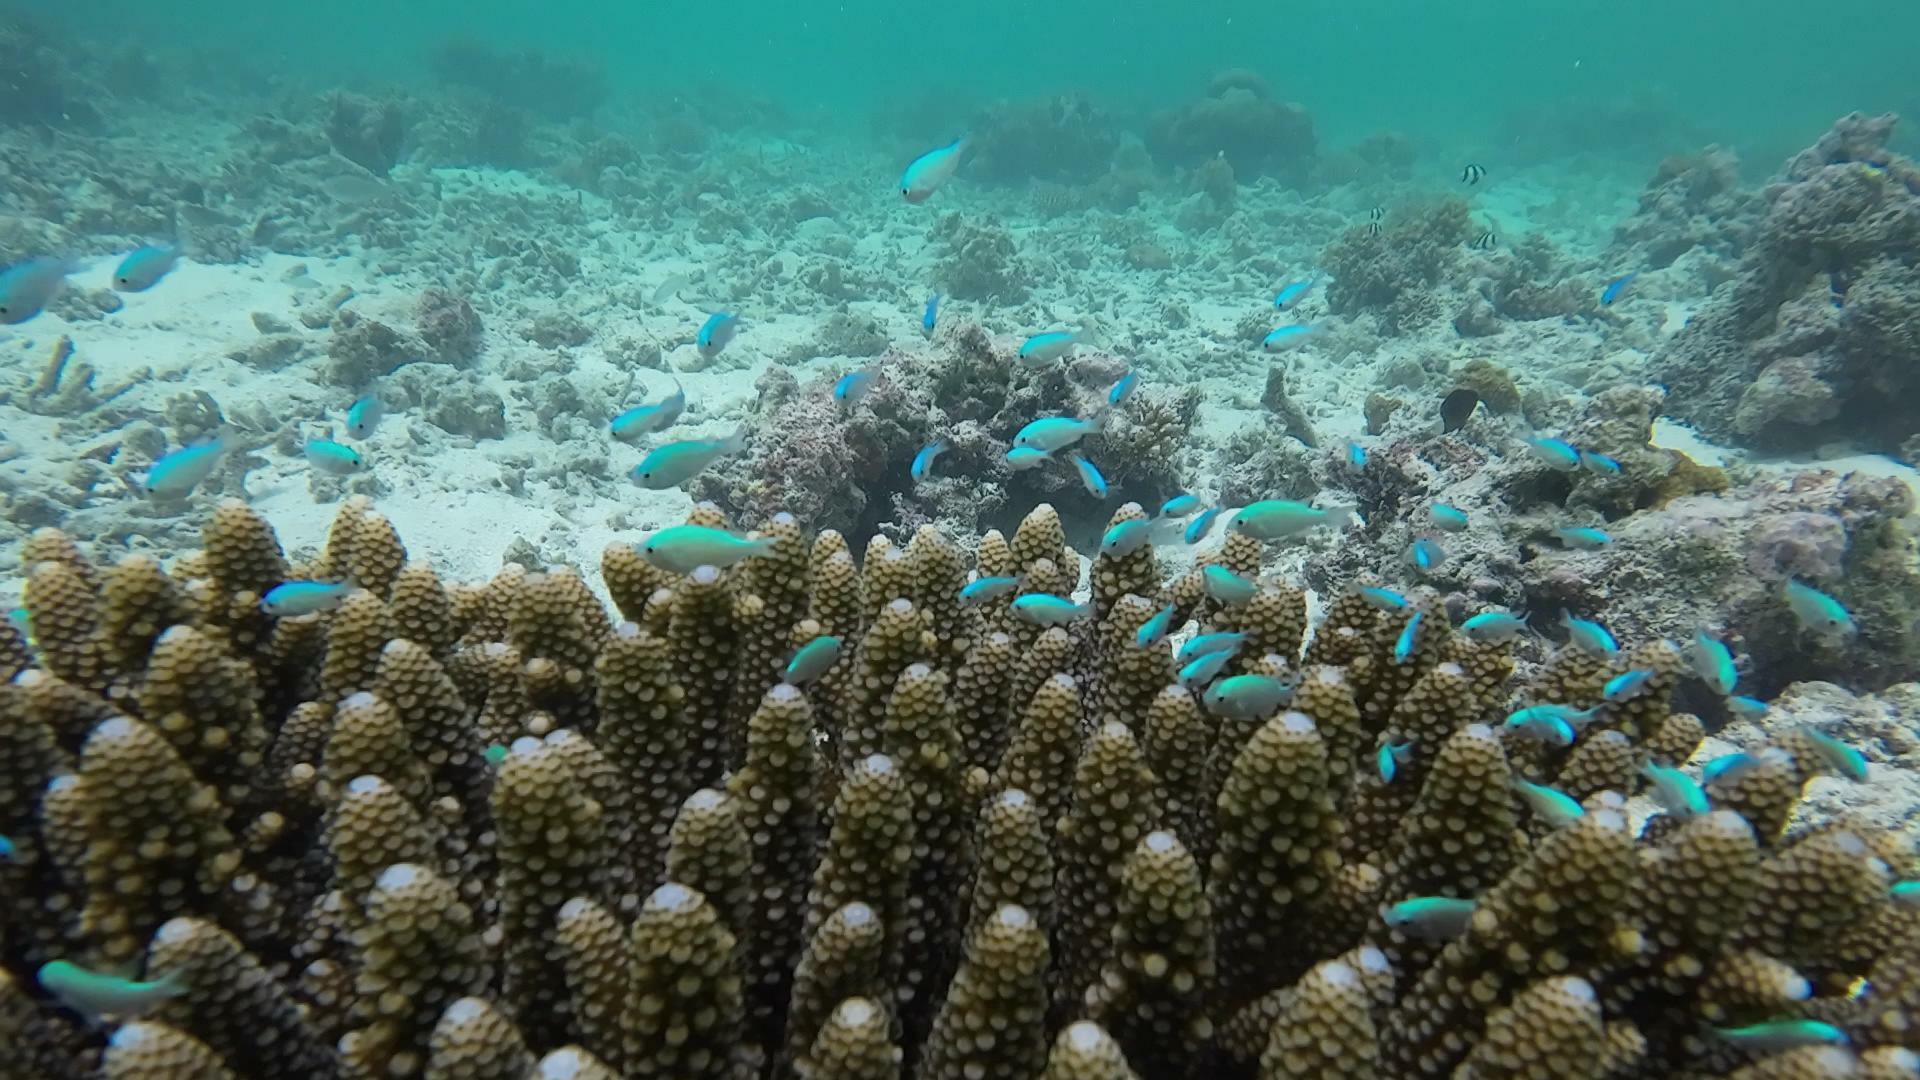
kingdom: Animalia
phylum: Chordata
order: Perciformes
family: Pomacentridae
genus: Chromis
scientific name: Chromis viridis
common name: Blue-green chromis
